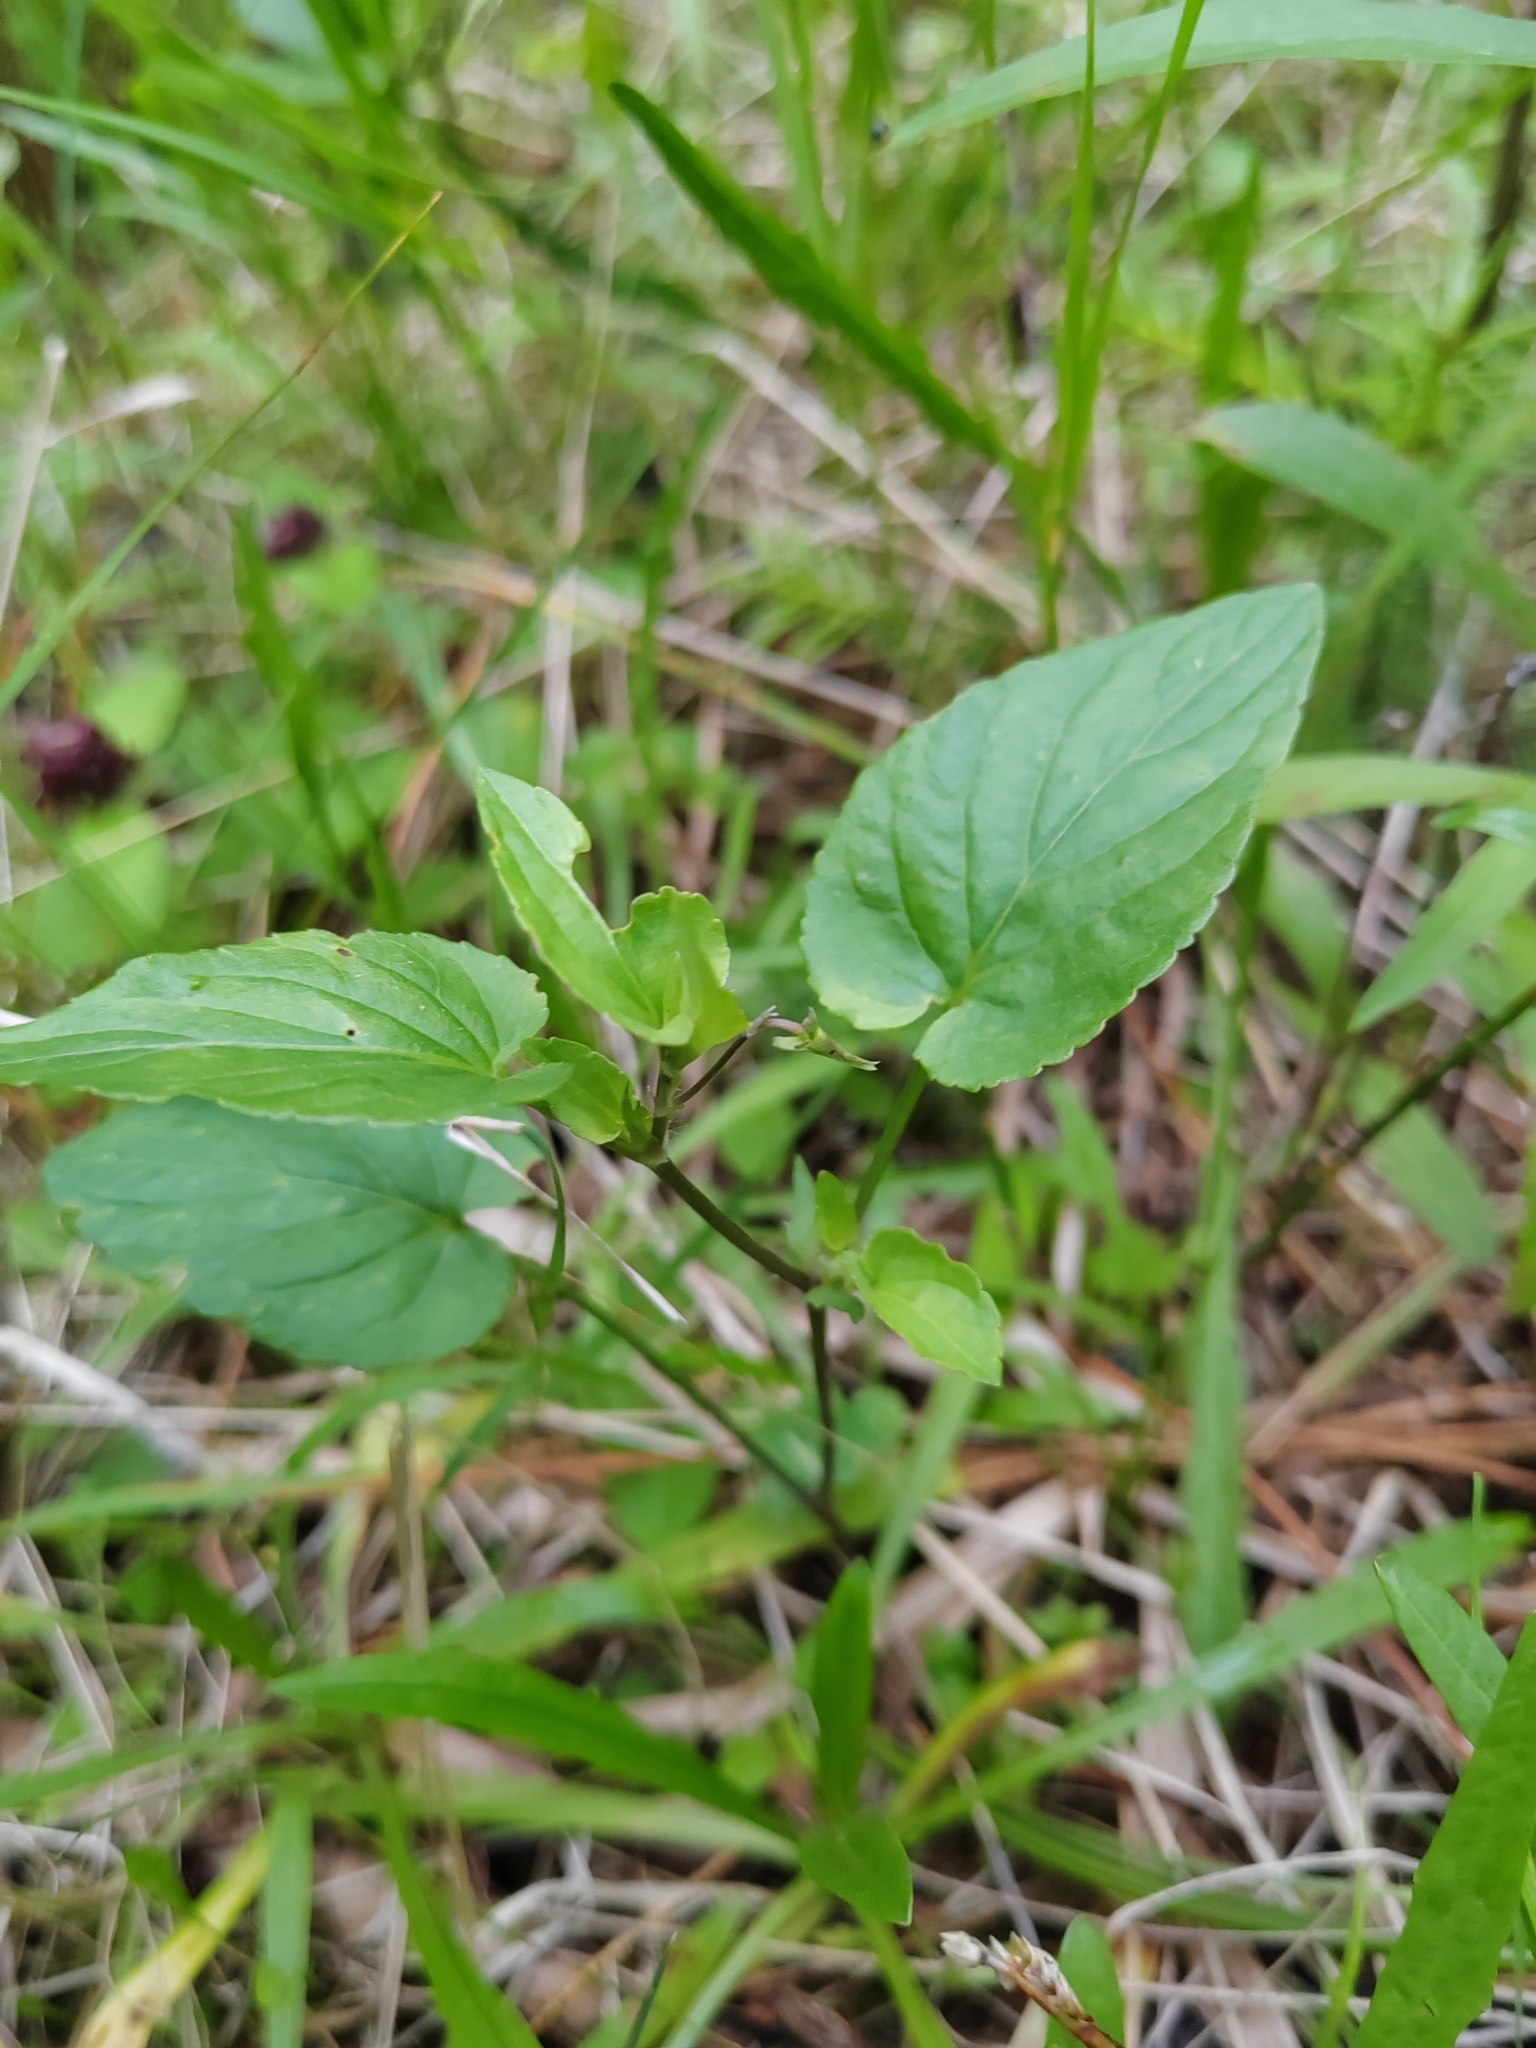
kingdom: Plantae
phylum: Tracheophyta
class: Magnoliopsida
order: Malpighiales
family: Violaceae
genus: Viola
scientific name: Viola
